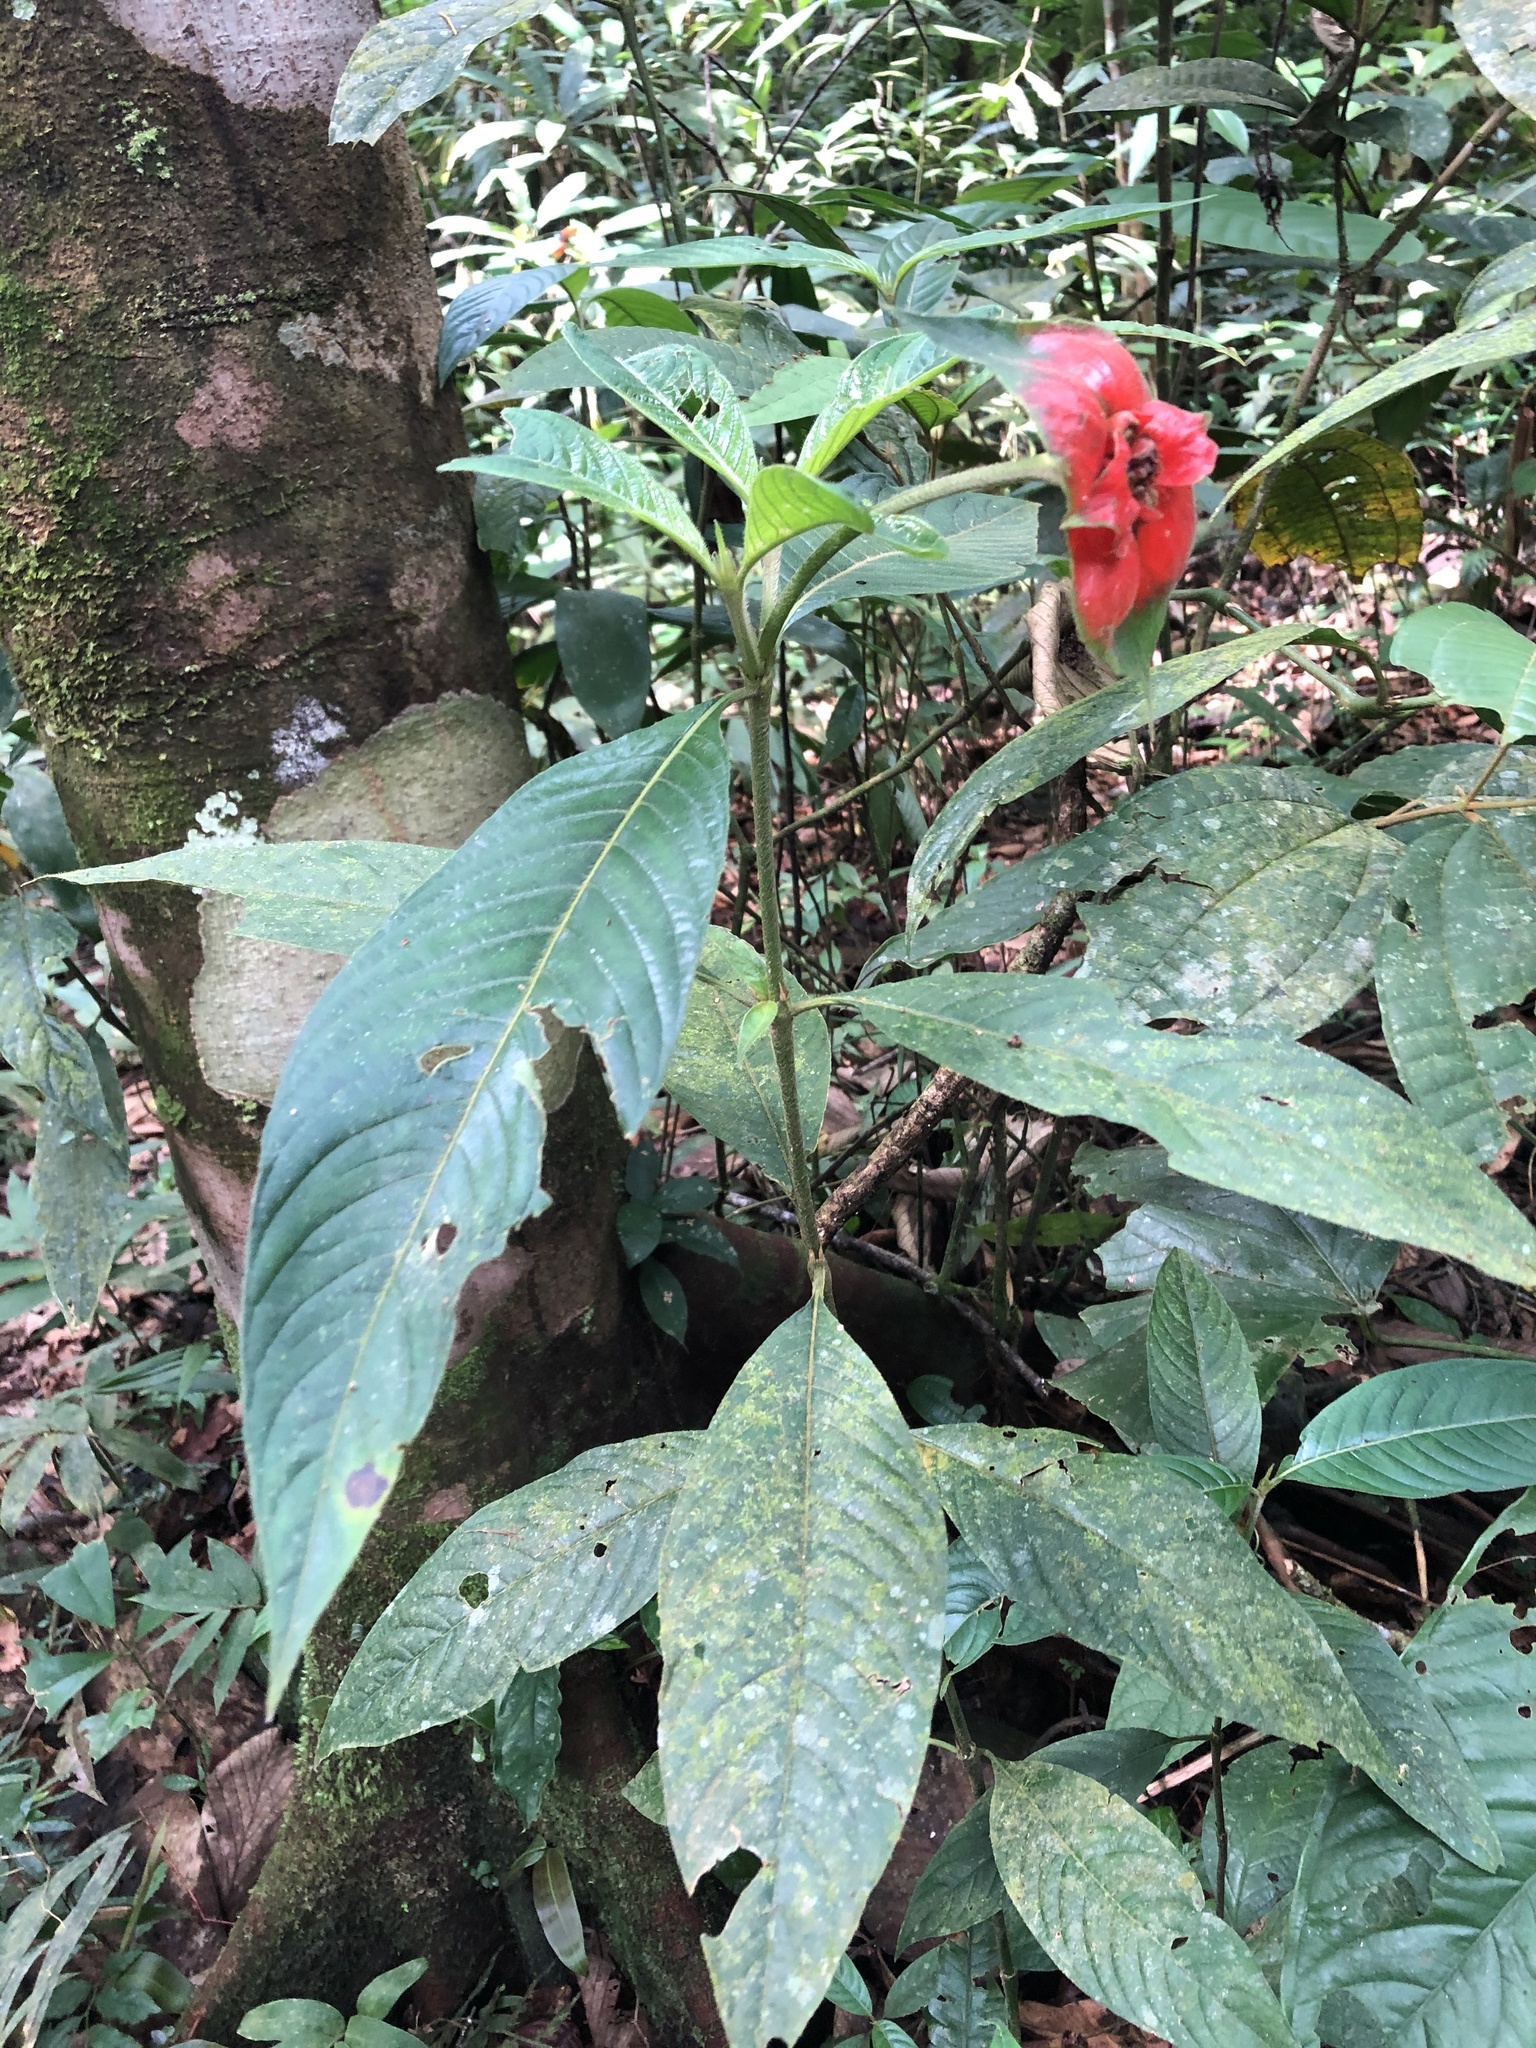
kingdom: Plantae
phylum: Tracheophyta
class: Magnoliopsida
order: Gentianales
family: Rubiaceae
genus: Palicourea
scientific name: Palicourea tomentosa
